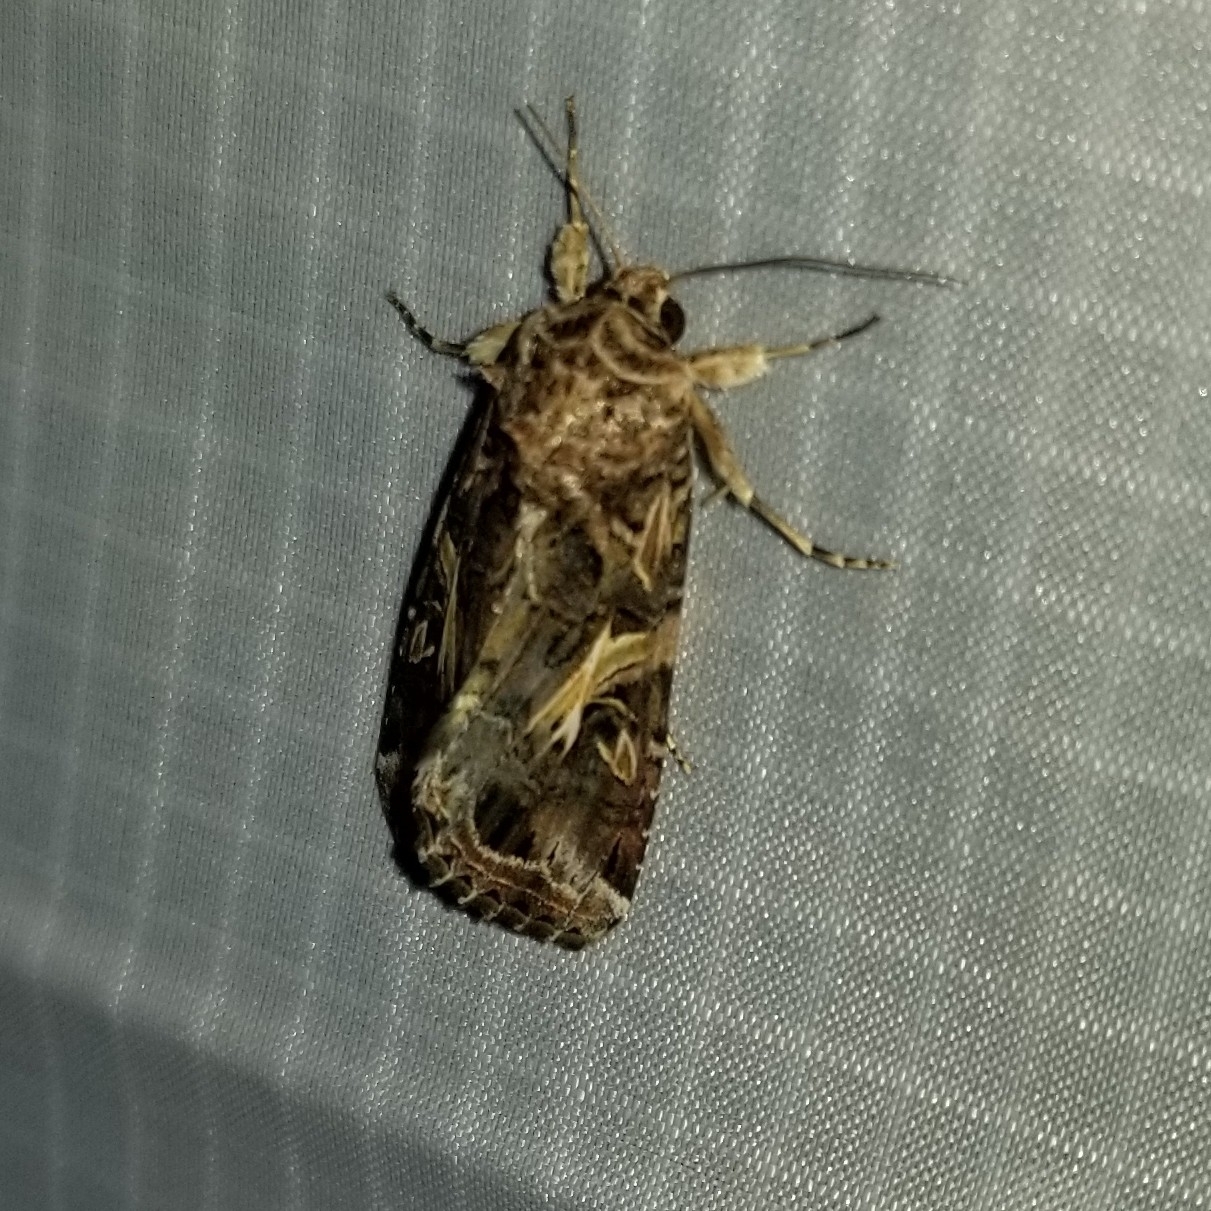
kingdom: Animalia
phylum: Arthropoda
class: Insecta
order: Lepidoptera
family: Noctuidae
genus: Spodoptera
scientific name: Spodoptera ornithogalli
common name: Yellow-striped armyworm
